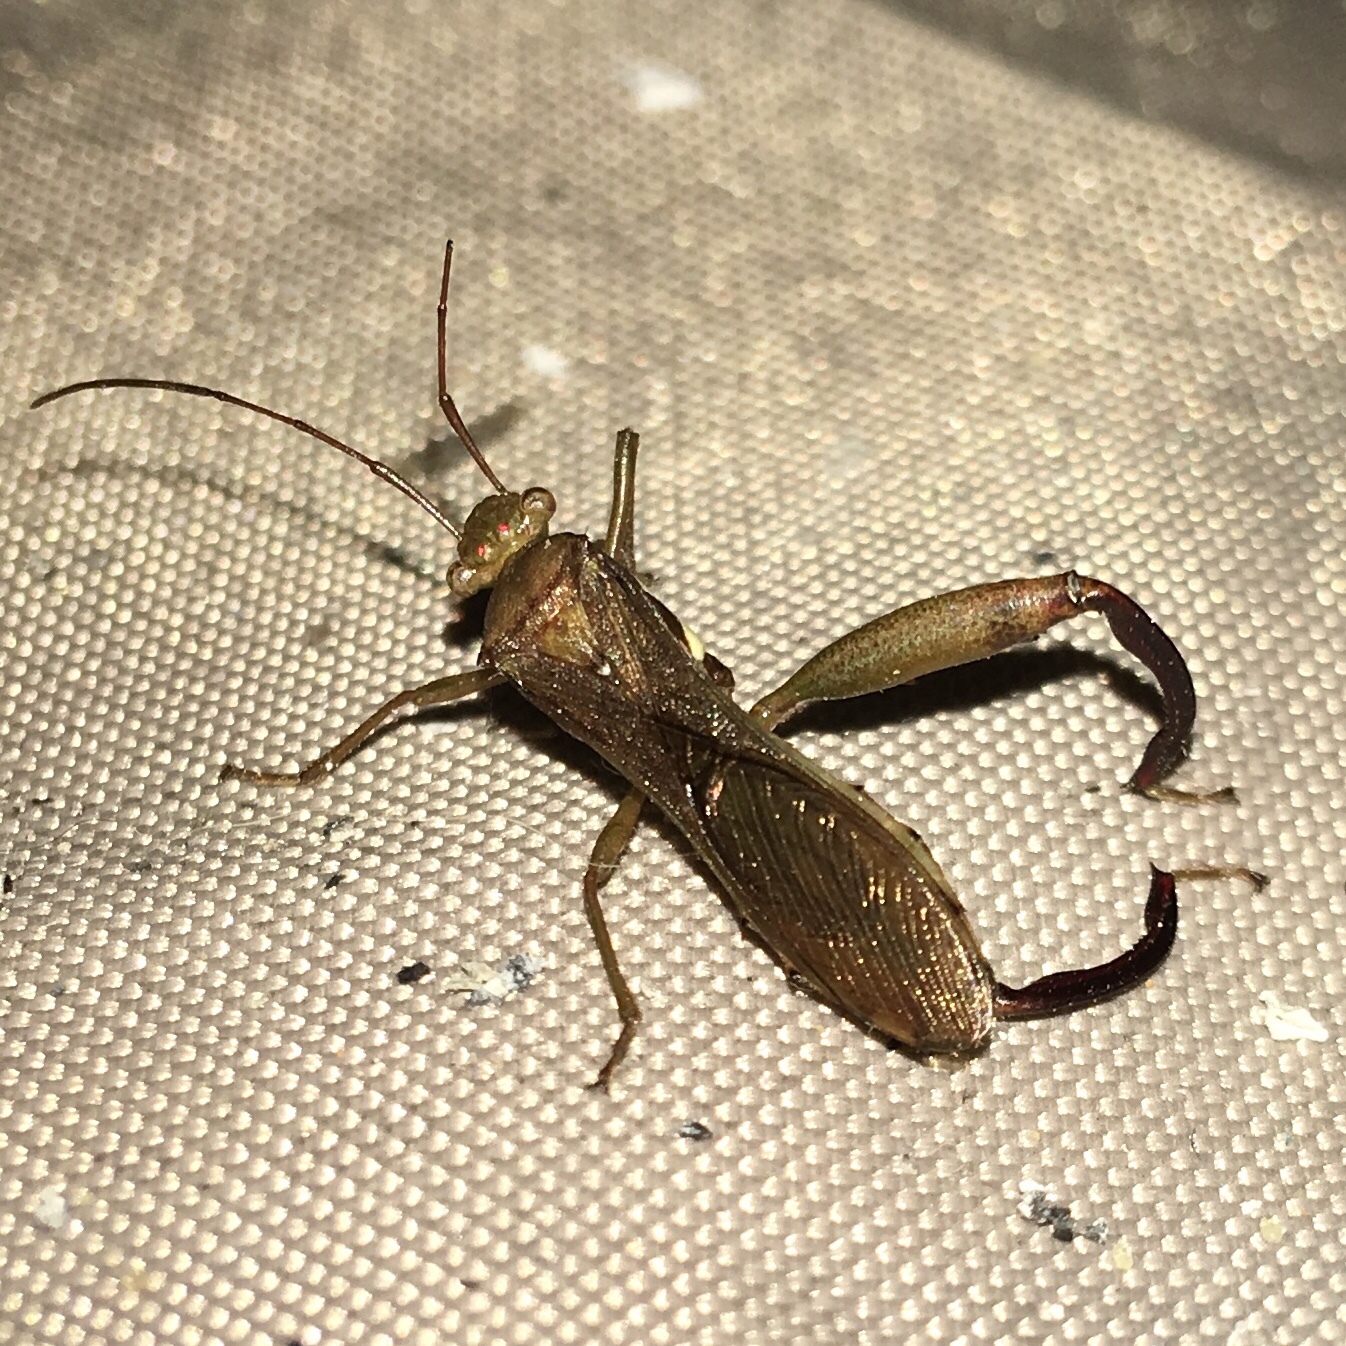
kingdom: Animalia
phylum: Arthropoda
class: Insecta
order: Hemiptera
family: Alydidae
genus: Hyalymenus
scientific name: Hyalymenus tarsatus
